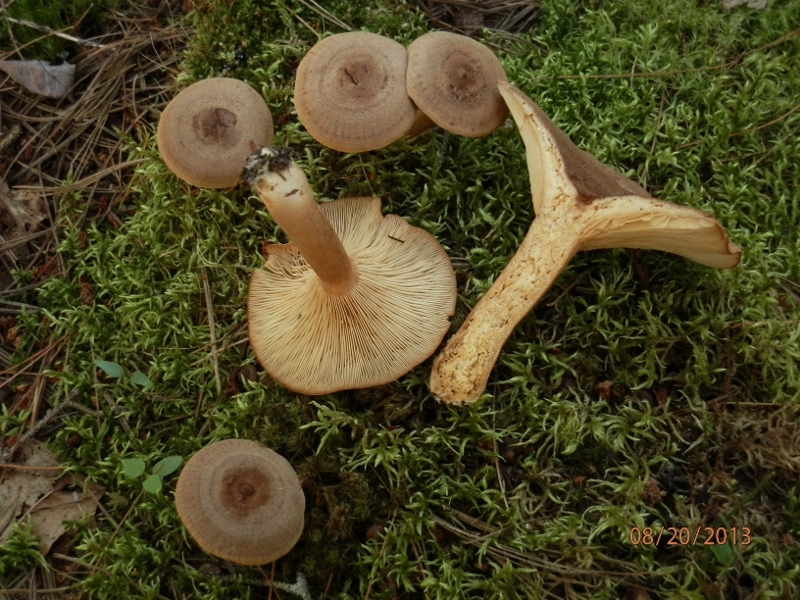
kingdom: Fungi
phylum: Basidiomycota
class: Agaricomycetes
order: Russulales
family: Russulaceae
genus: Lactarius
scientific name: Lactarius mutabilis
